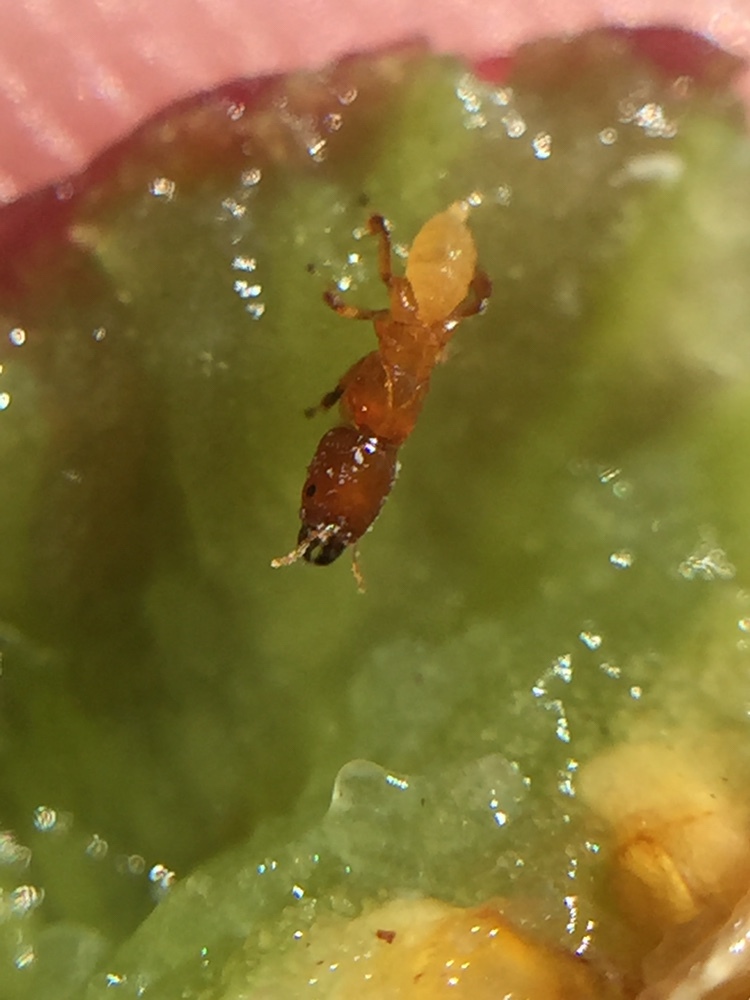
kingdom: Animalia
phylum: Arthropoda
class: Insecta
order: Hymenoptera
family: Agaonidae
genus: Sycoscapter
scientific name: Sycoscapter australis
